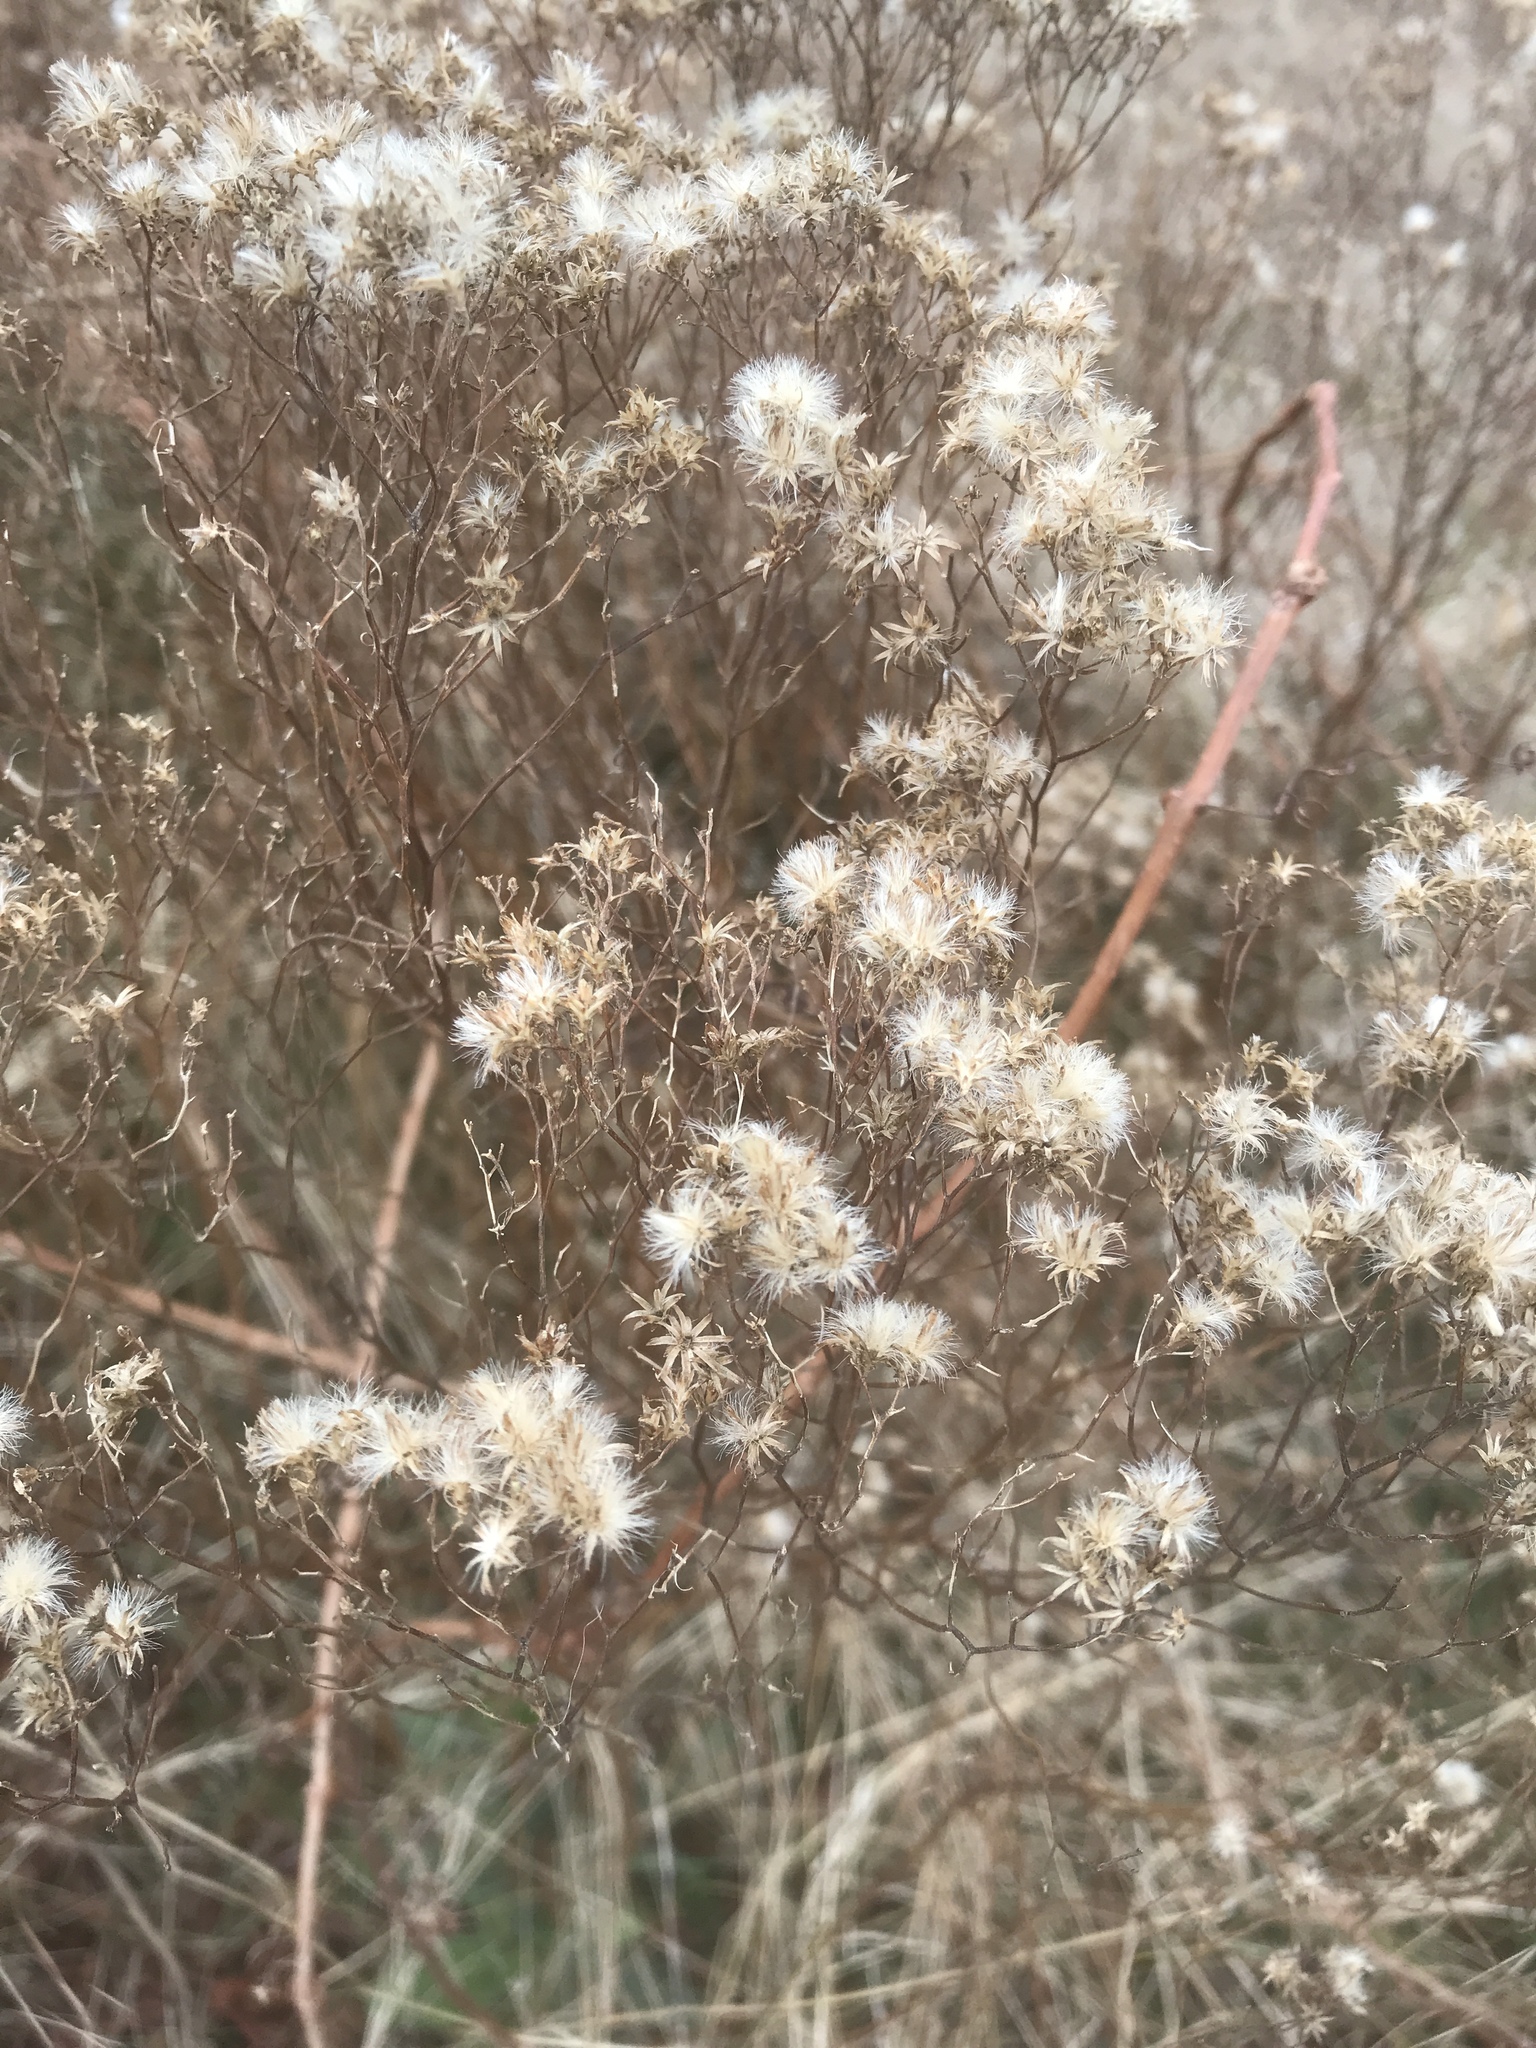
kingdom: Plantae
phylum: Tracheophyta
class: Magnoliopsida
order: Asterales
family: Asteraceae
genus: Euthamia
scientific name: Euthamia caroliniana
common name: Coastal plain goldentop
